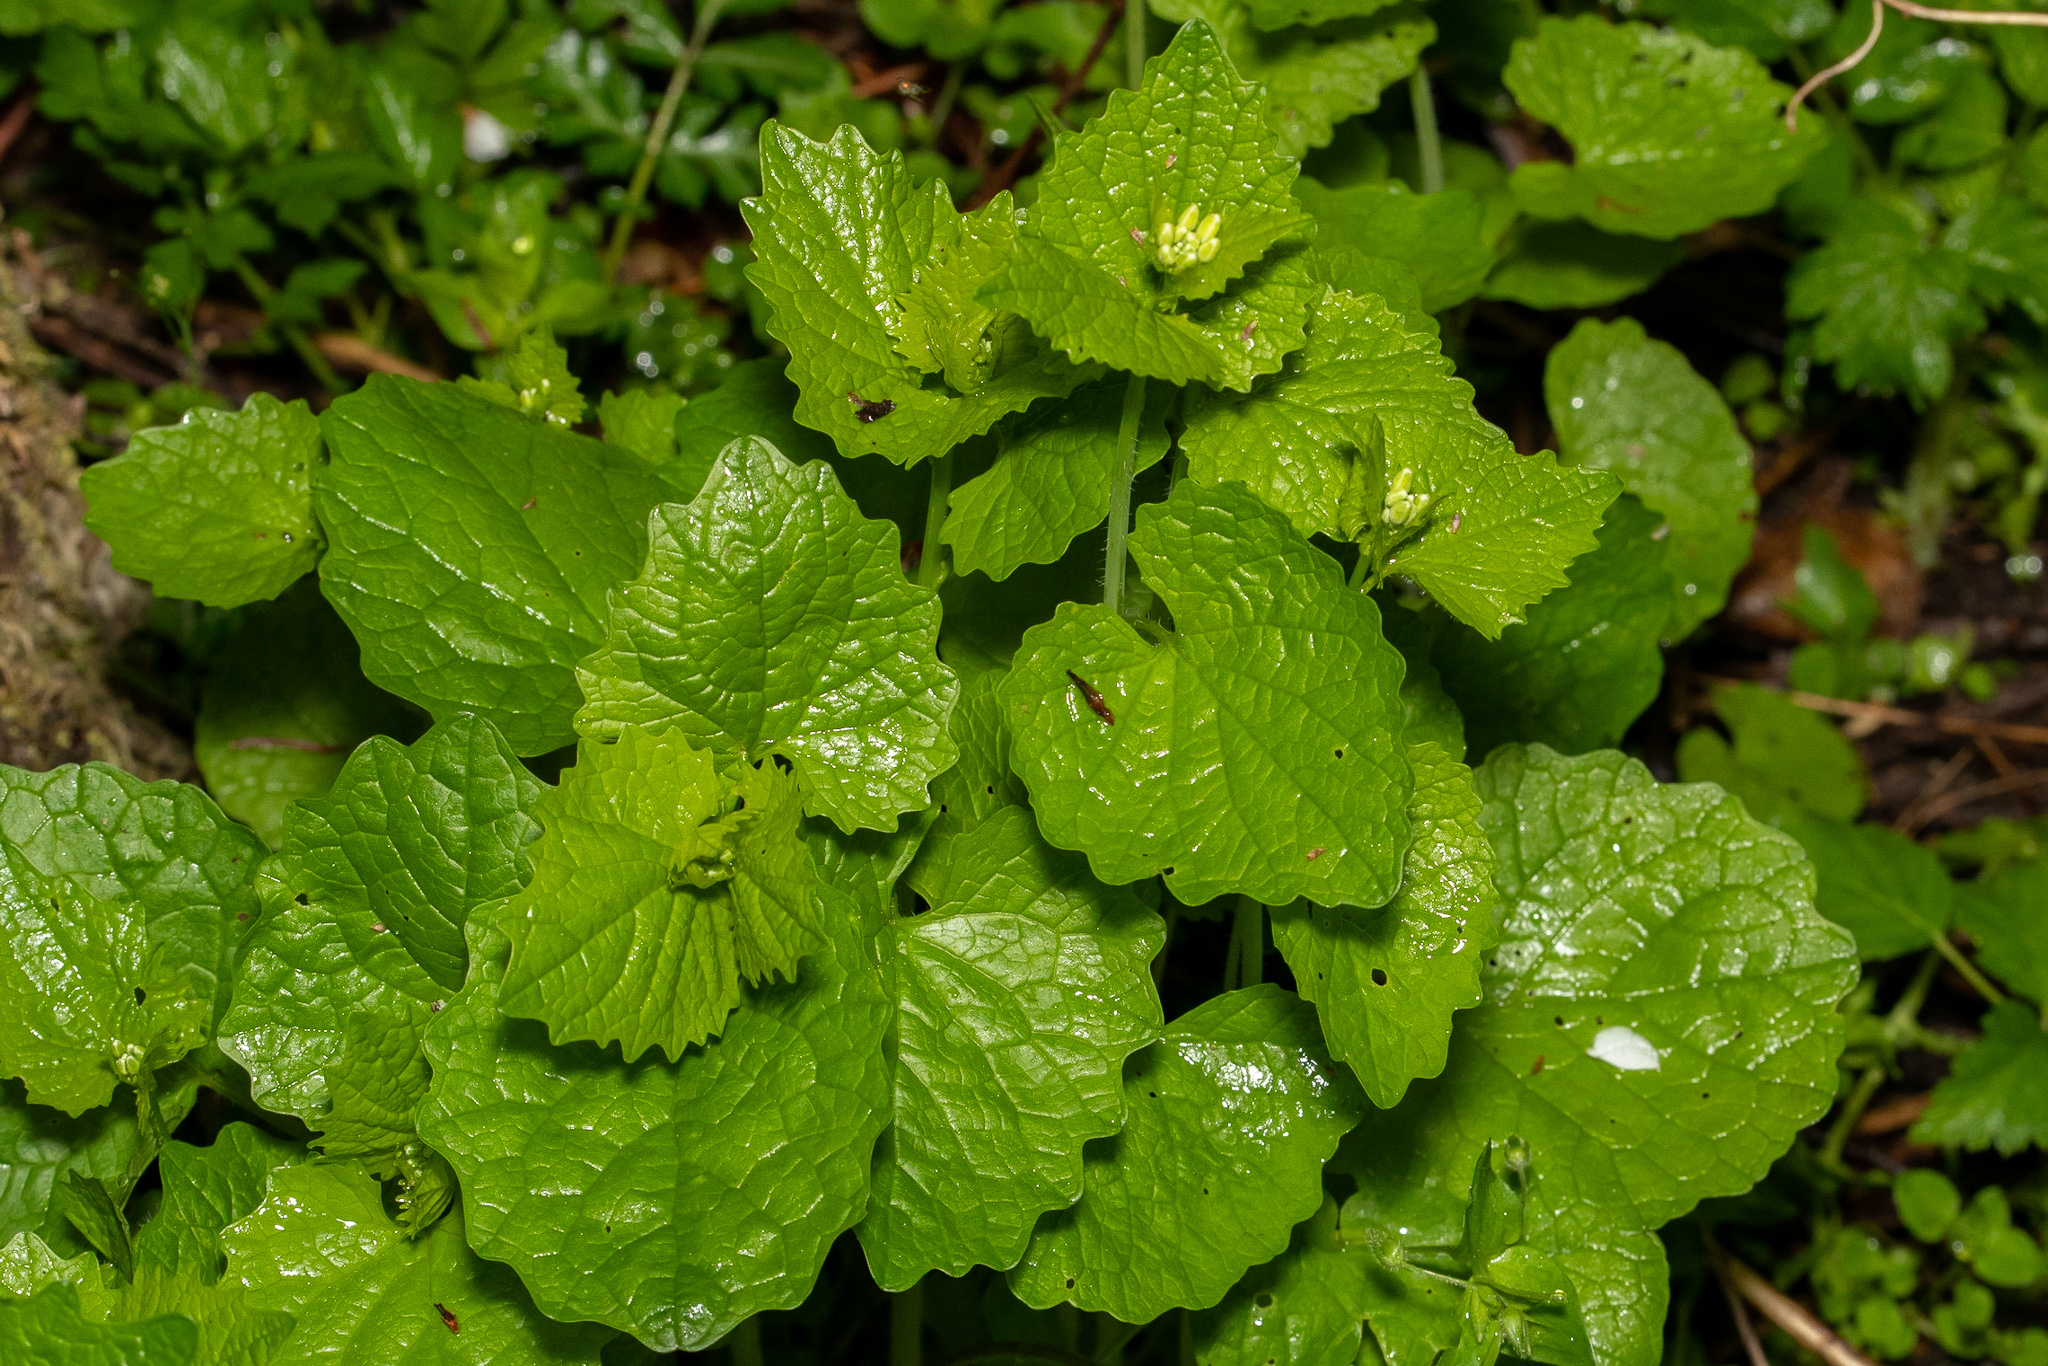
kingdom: Plantae
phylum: Tracheophyta
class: Magnoliopsida
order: Brassicales
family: Brassicaceae
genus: Alliaria
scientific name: Alliaria petiolata
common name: Garlic mustard
